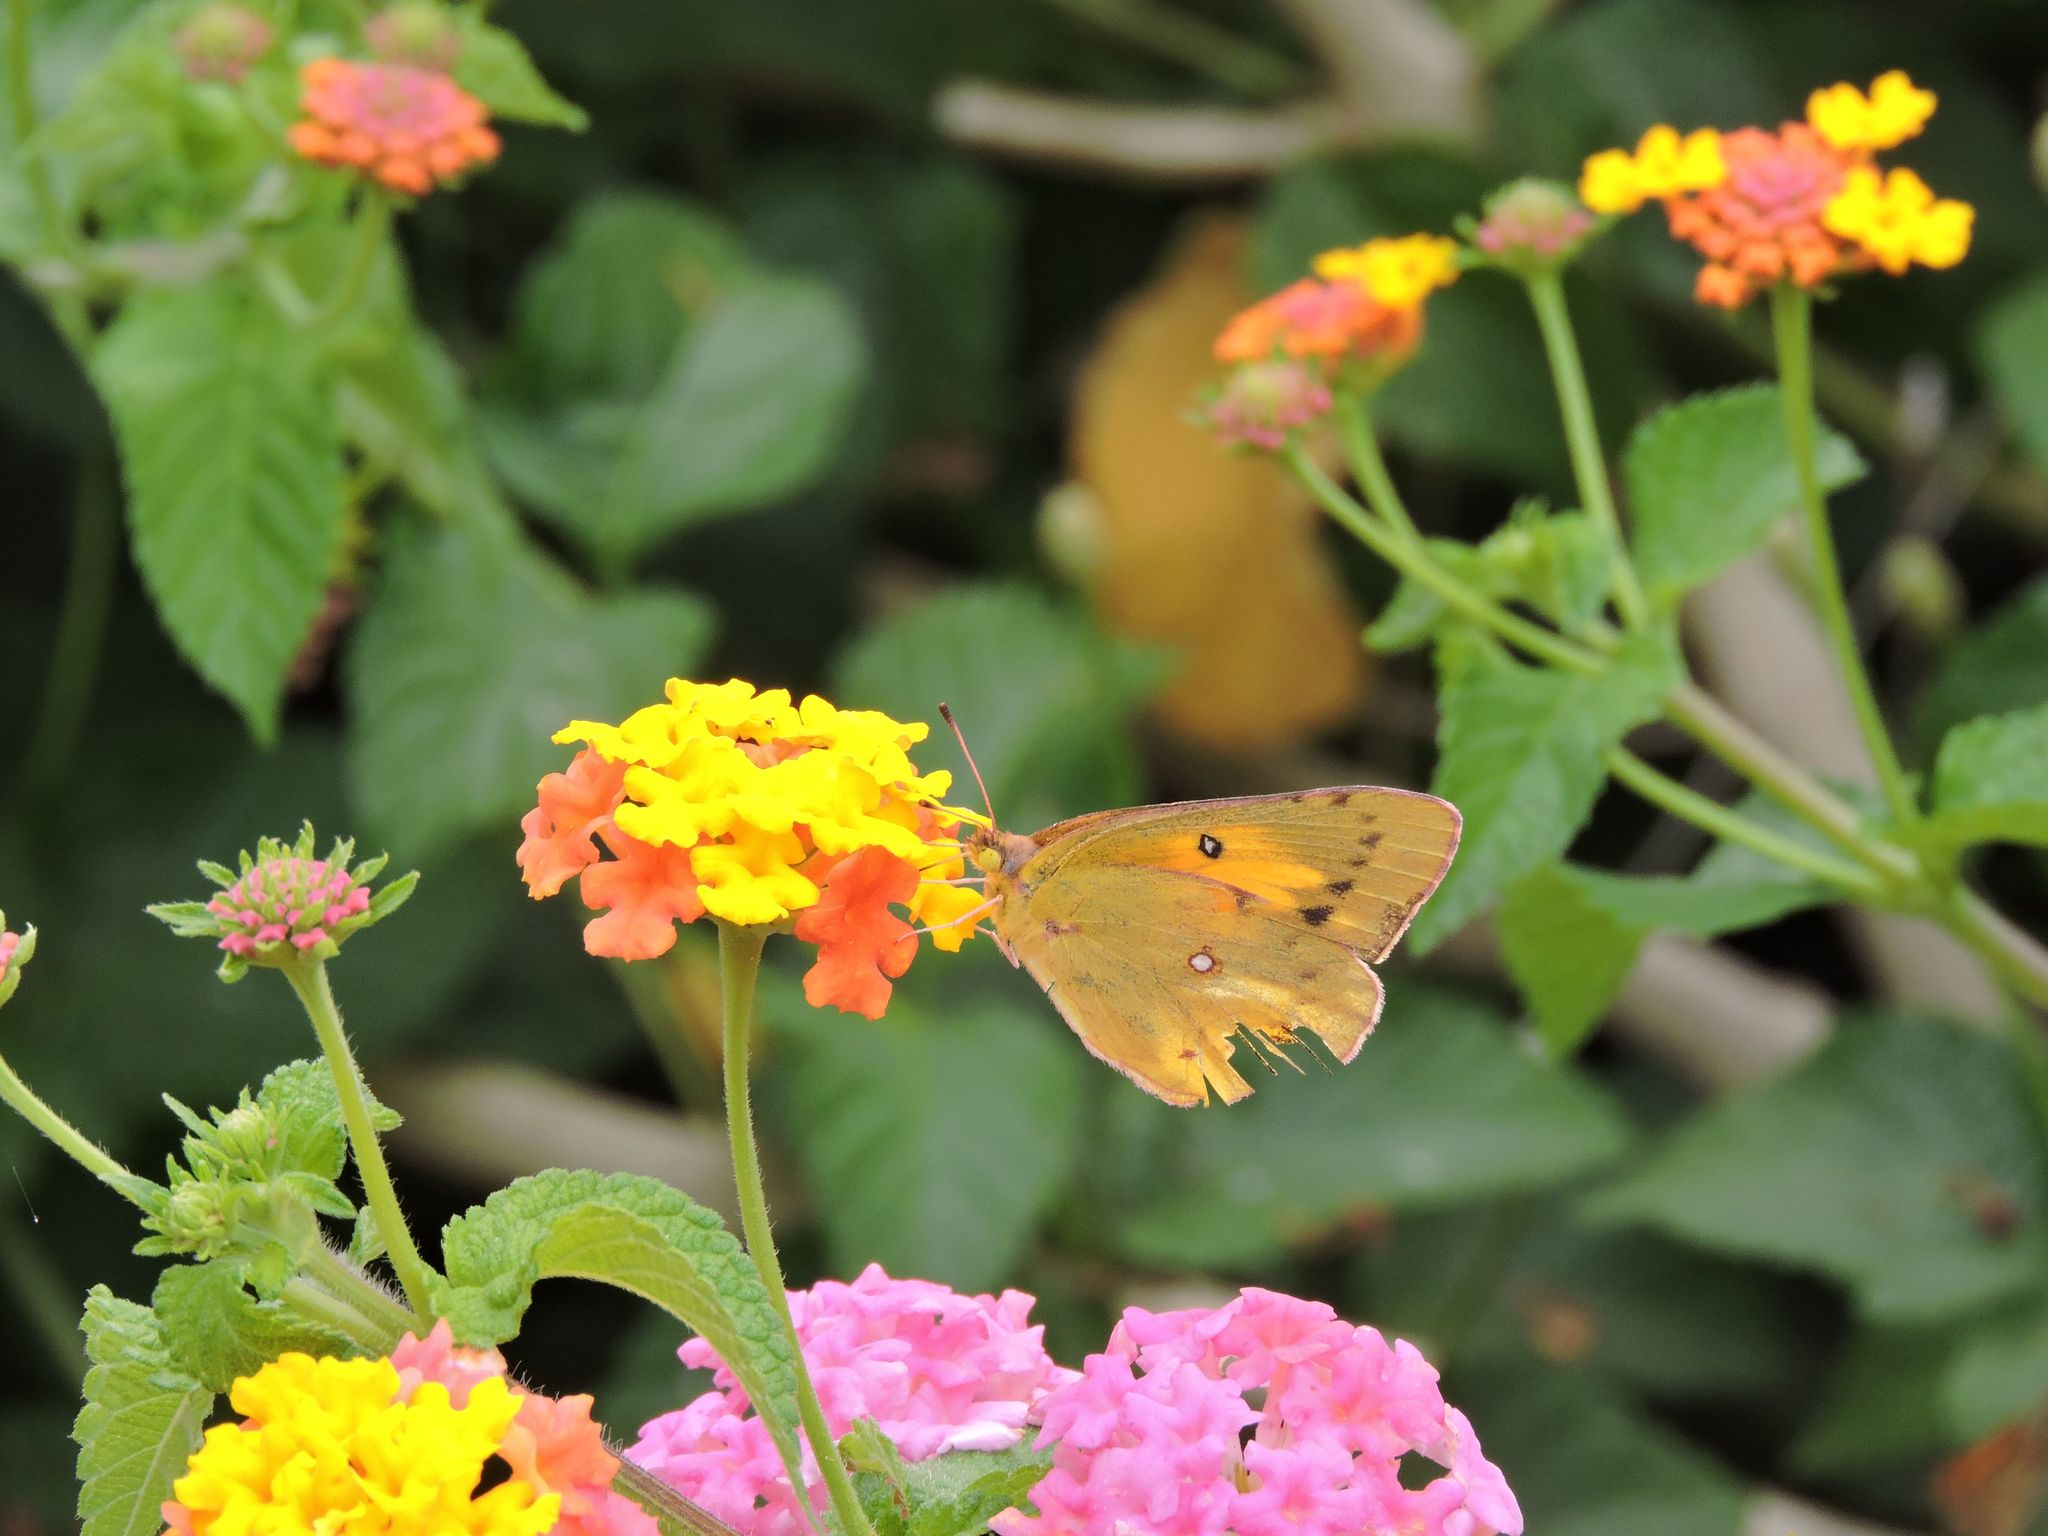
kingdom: Animalia
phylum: Arthropoda
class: Insecta
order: Lepidoptera
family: Pieridae
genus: Colias
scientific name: Colias eurytheme
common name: Alfalfa butterfly
